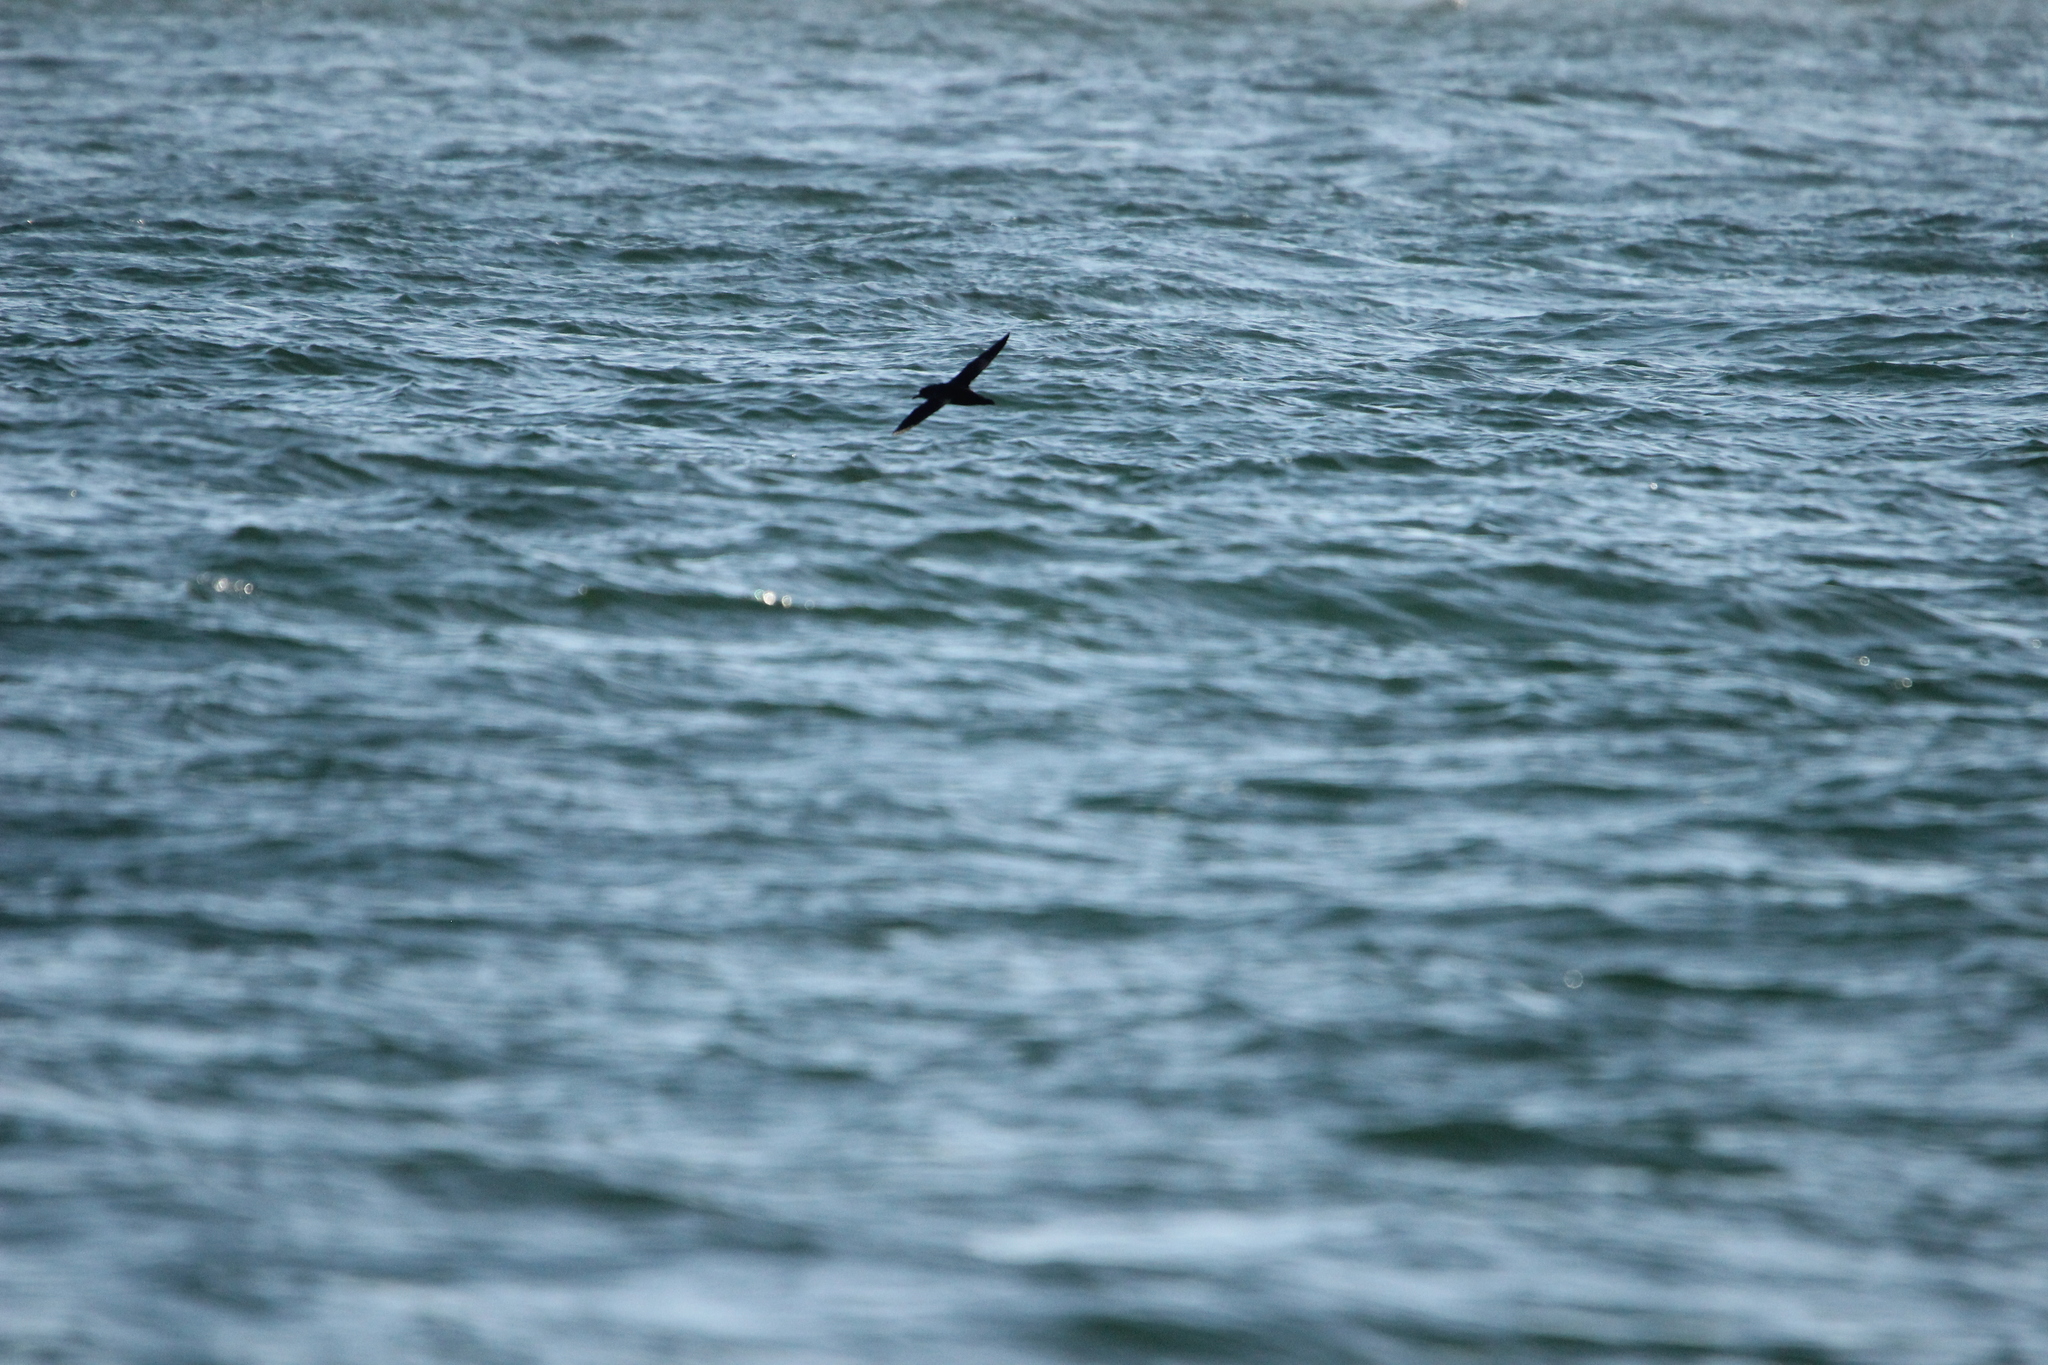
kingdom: Animalia
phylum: Chordata
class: Aves
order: Procellariiformes
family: Procellariidae
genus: Puffinus
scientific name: Puffinus griseus
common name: Sooty shearwater
